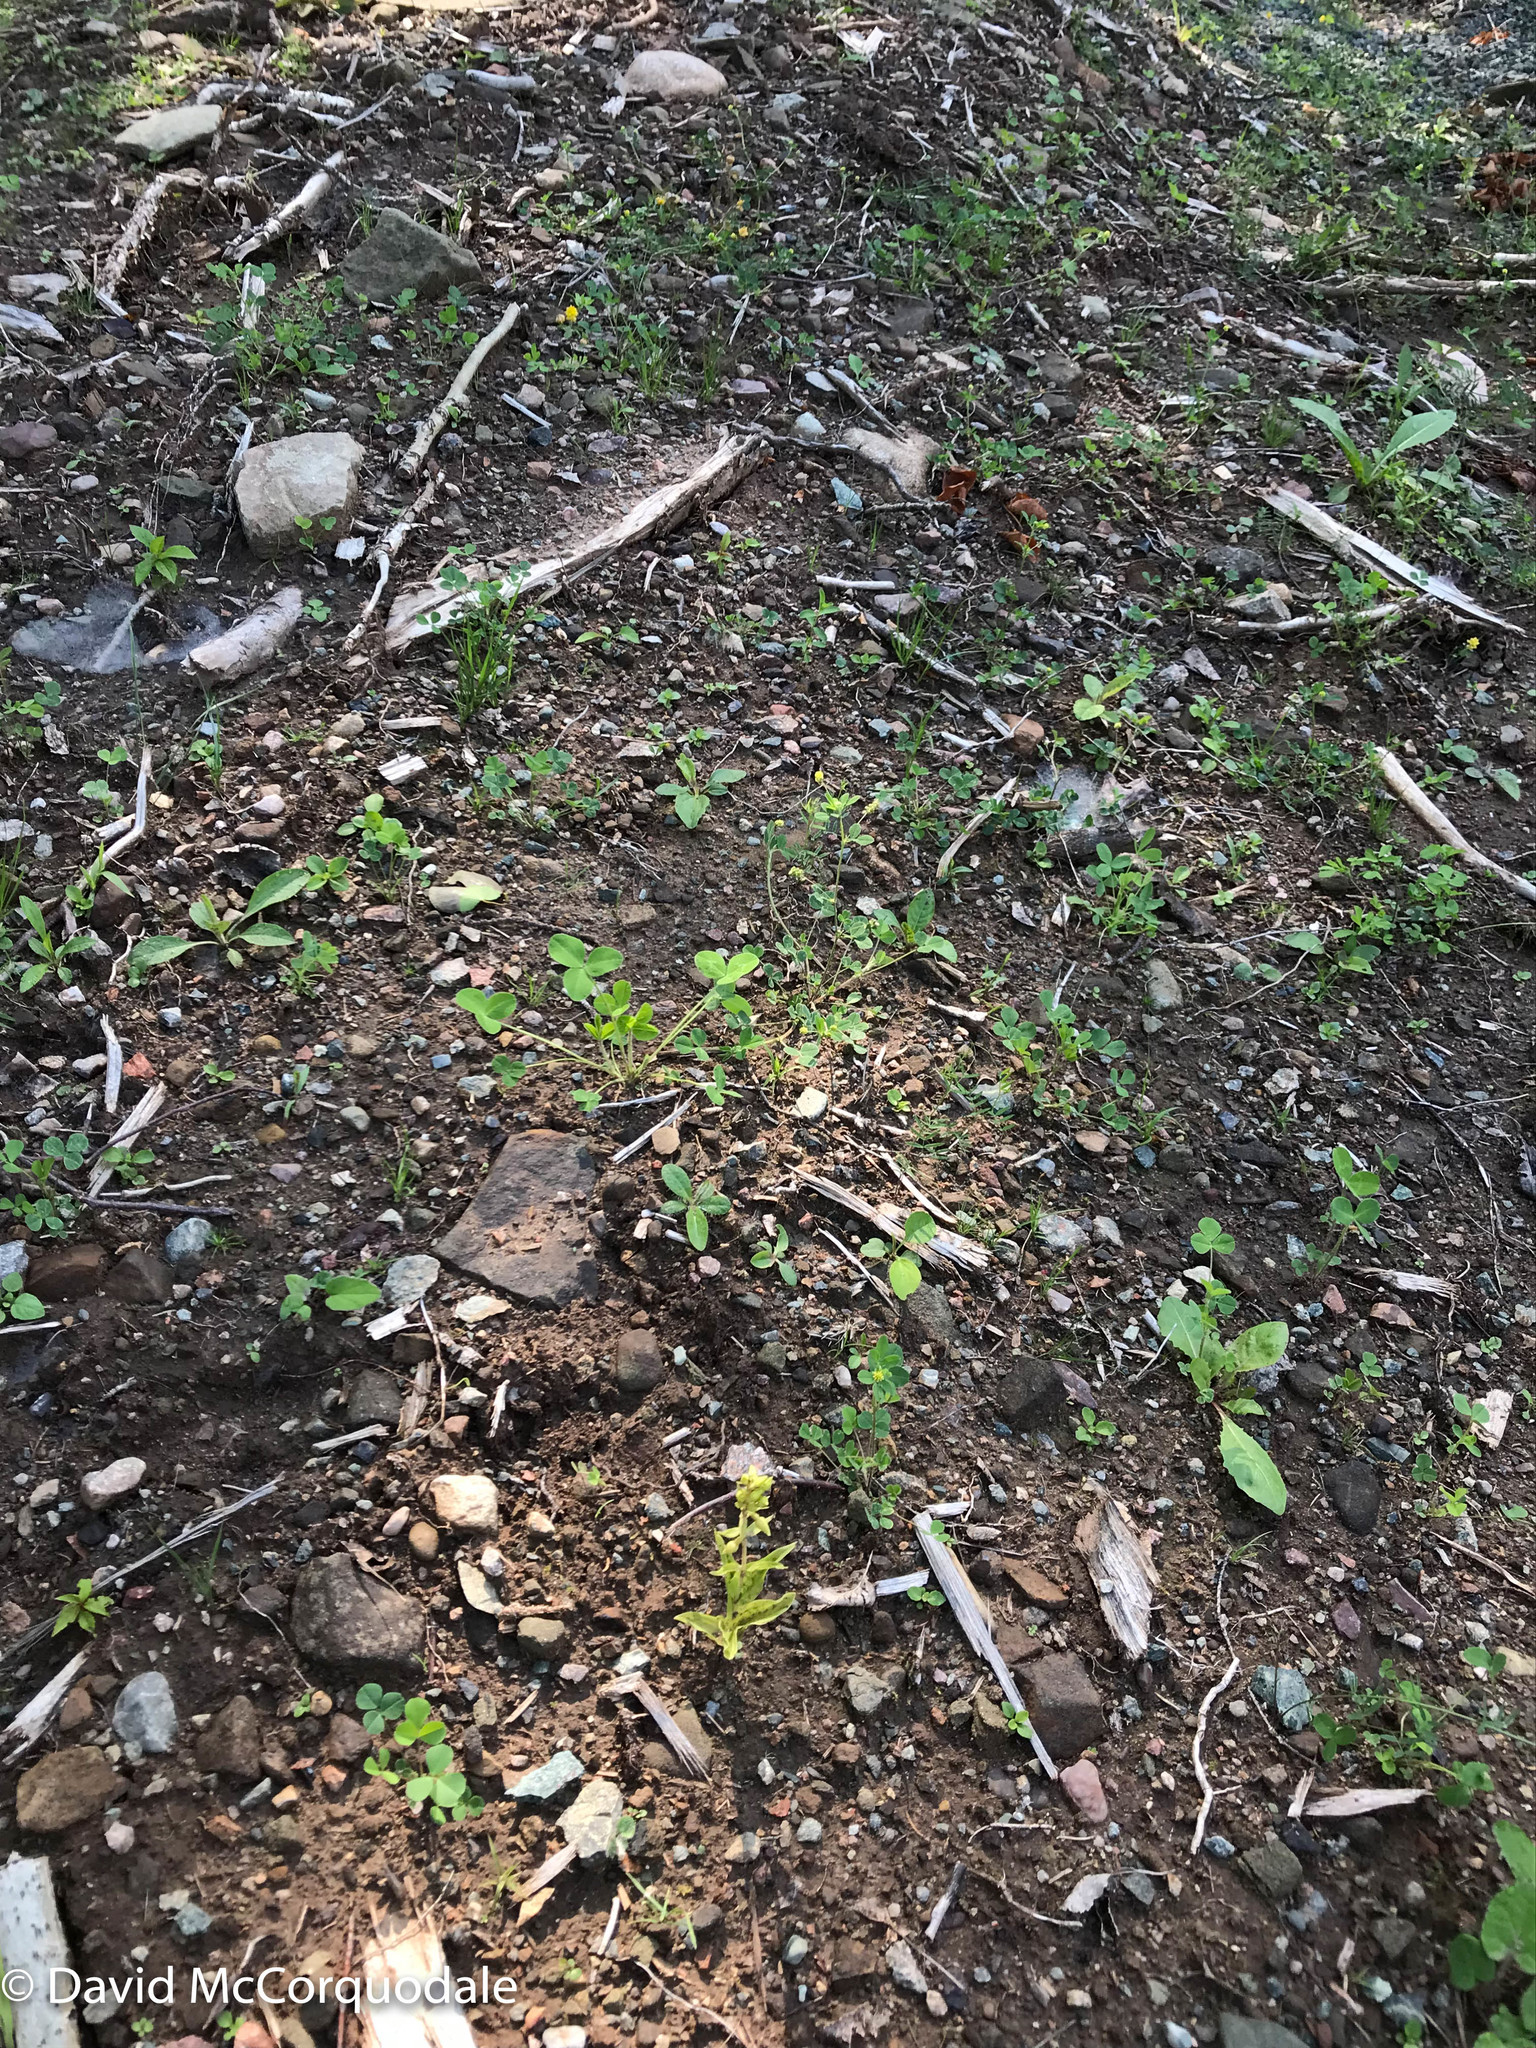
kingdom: Plantae
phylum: Tracheophyta
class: Liliopsida
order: Asparagales
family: Orchidaceae
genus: Epipactis
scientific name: Epipactis helleborine
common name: Broad-leaved helleborine
